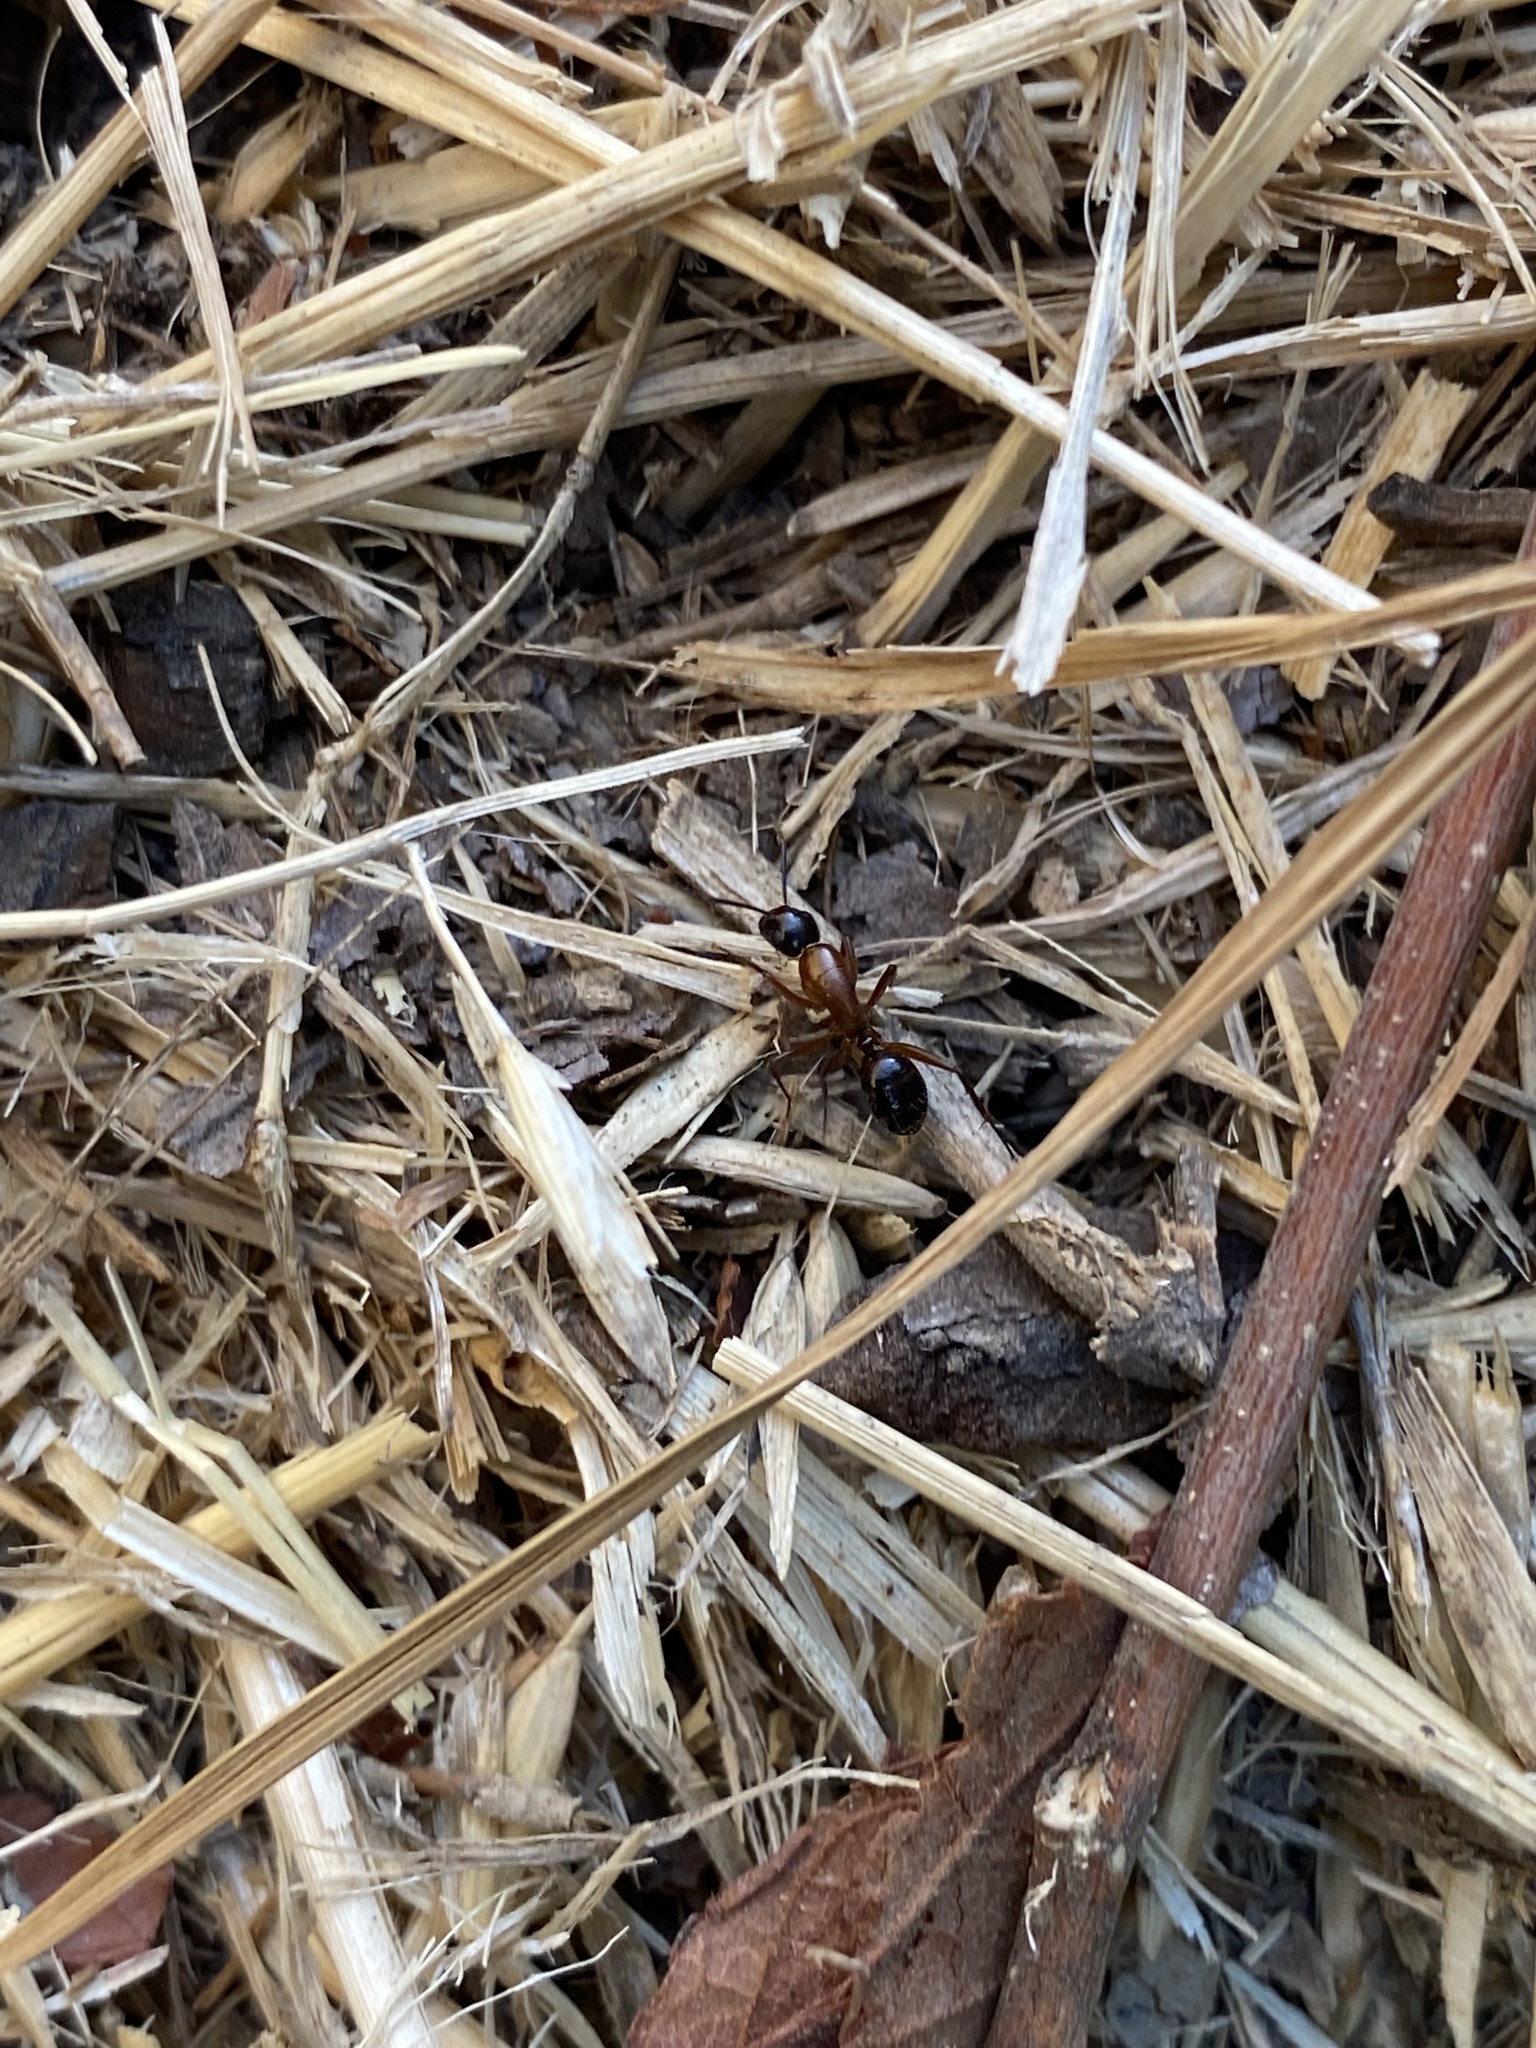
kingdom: Animalia
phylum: Arthropoda
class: Insecta
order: Hymenoptera
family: Formicidae
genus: Camponotus
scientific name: Camponotus texanus
